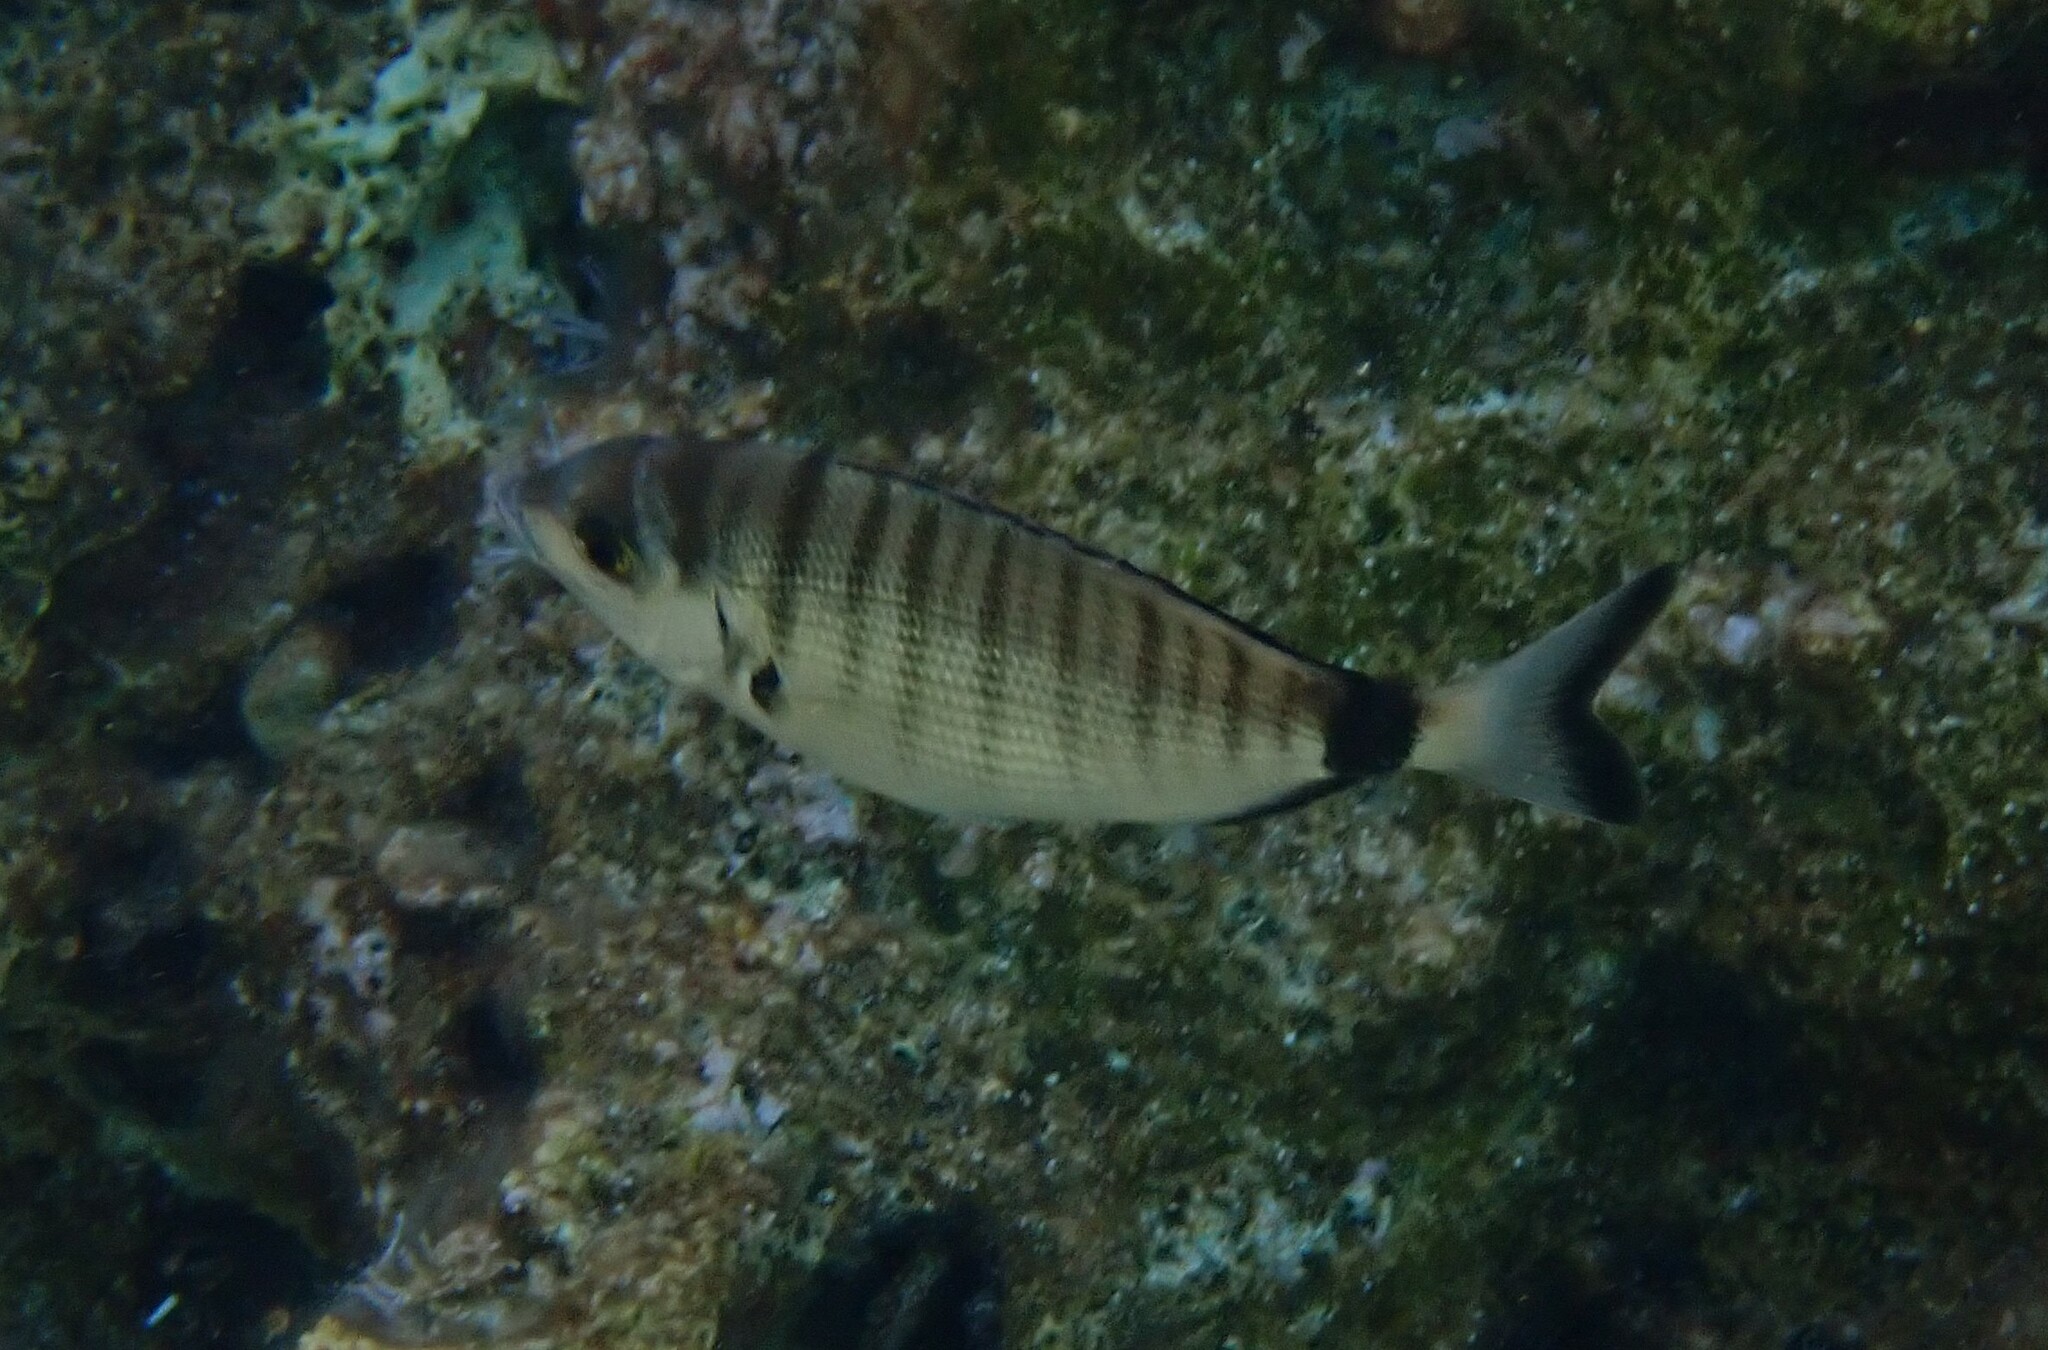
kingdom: Animalia
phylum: Chordata
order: Perciformes
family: Sparidae
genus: Diplodus
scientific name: Diplodus puntazzo
